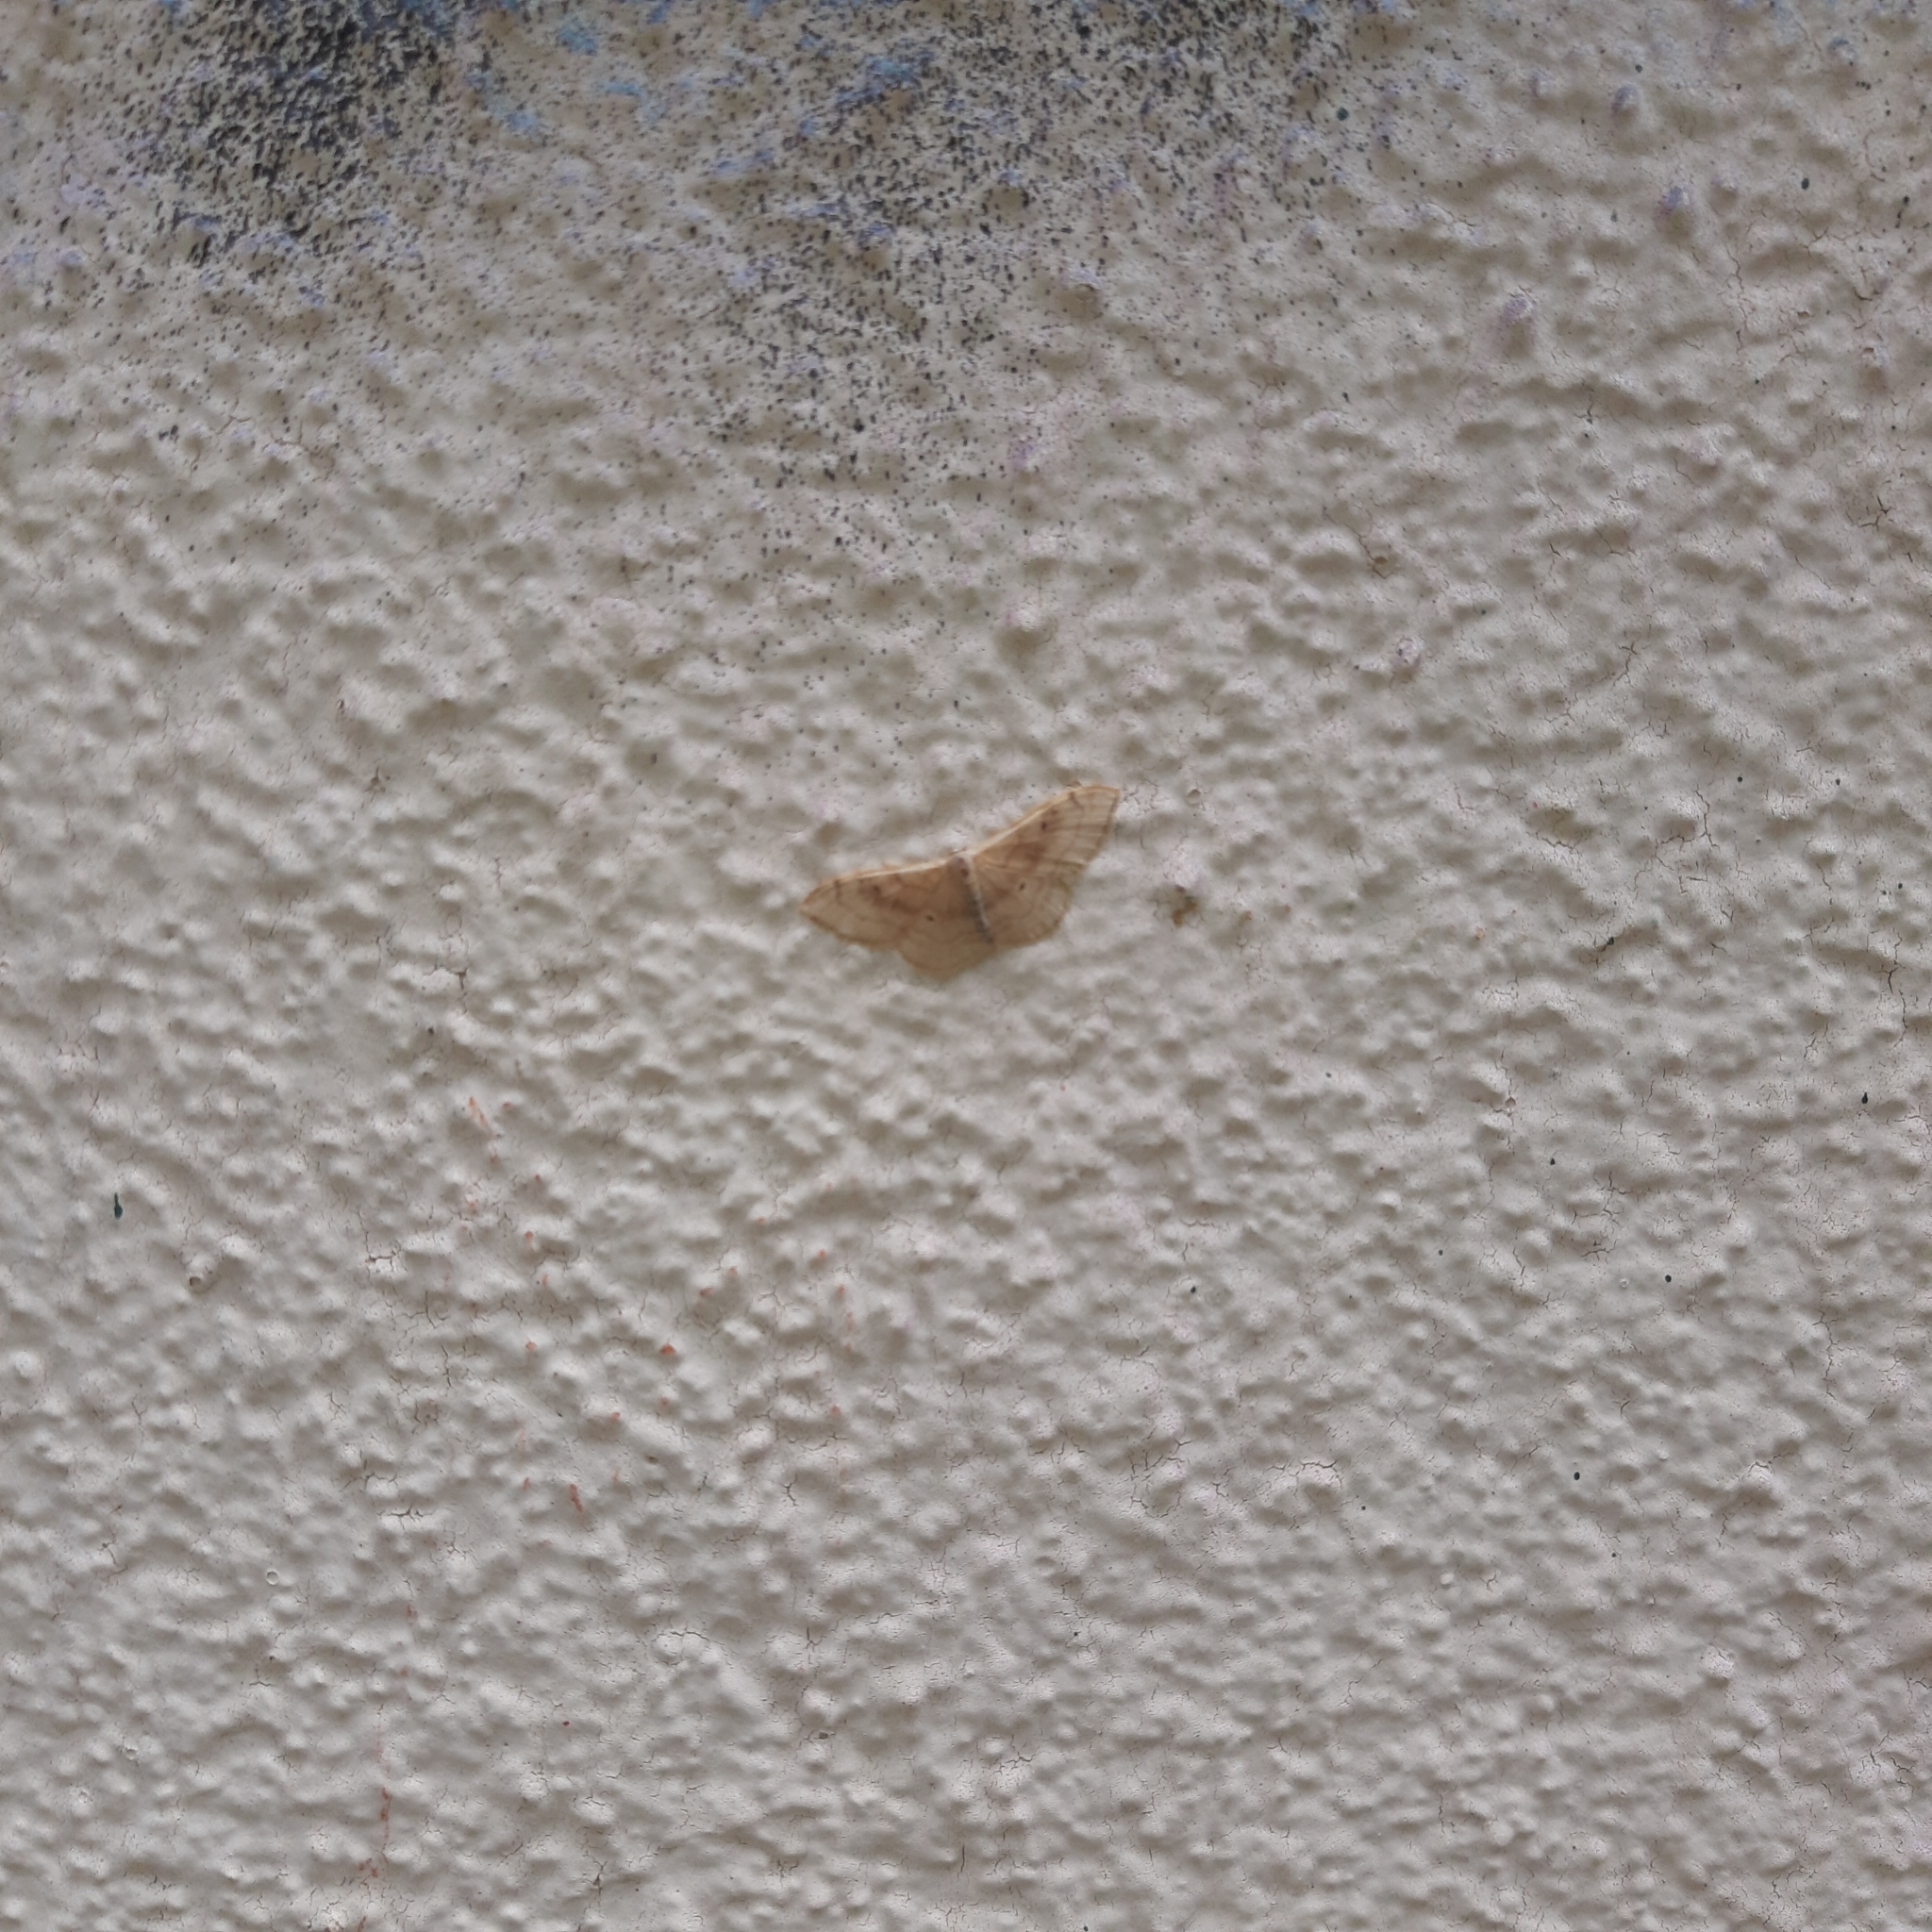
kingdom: Animalia
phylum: Arthropoda
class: Insecta
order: Lepidoptera
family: Geometridae
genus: Idaea
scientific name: Idaea degeneraria
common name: Portland ribbon wave
